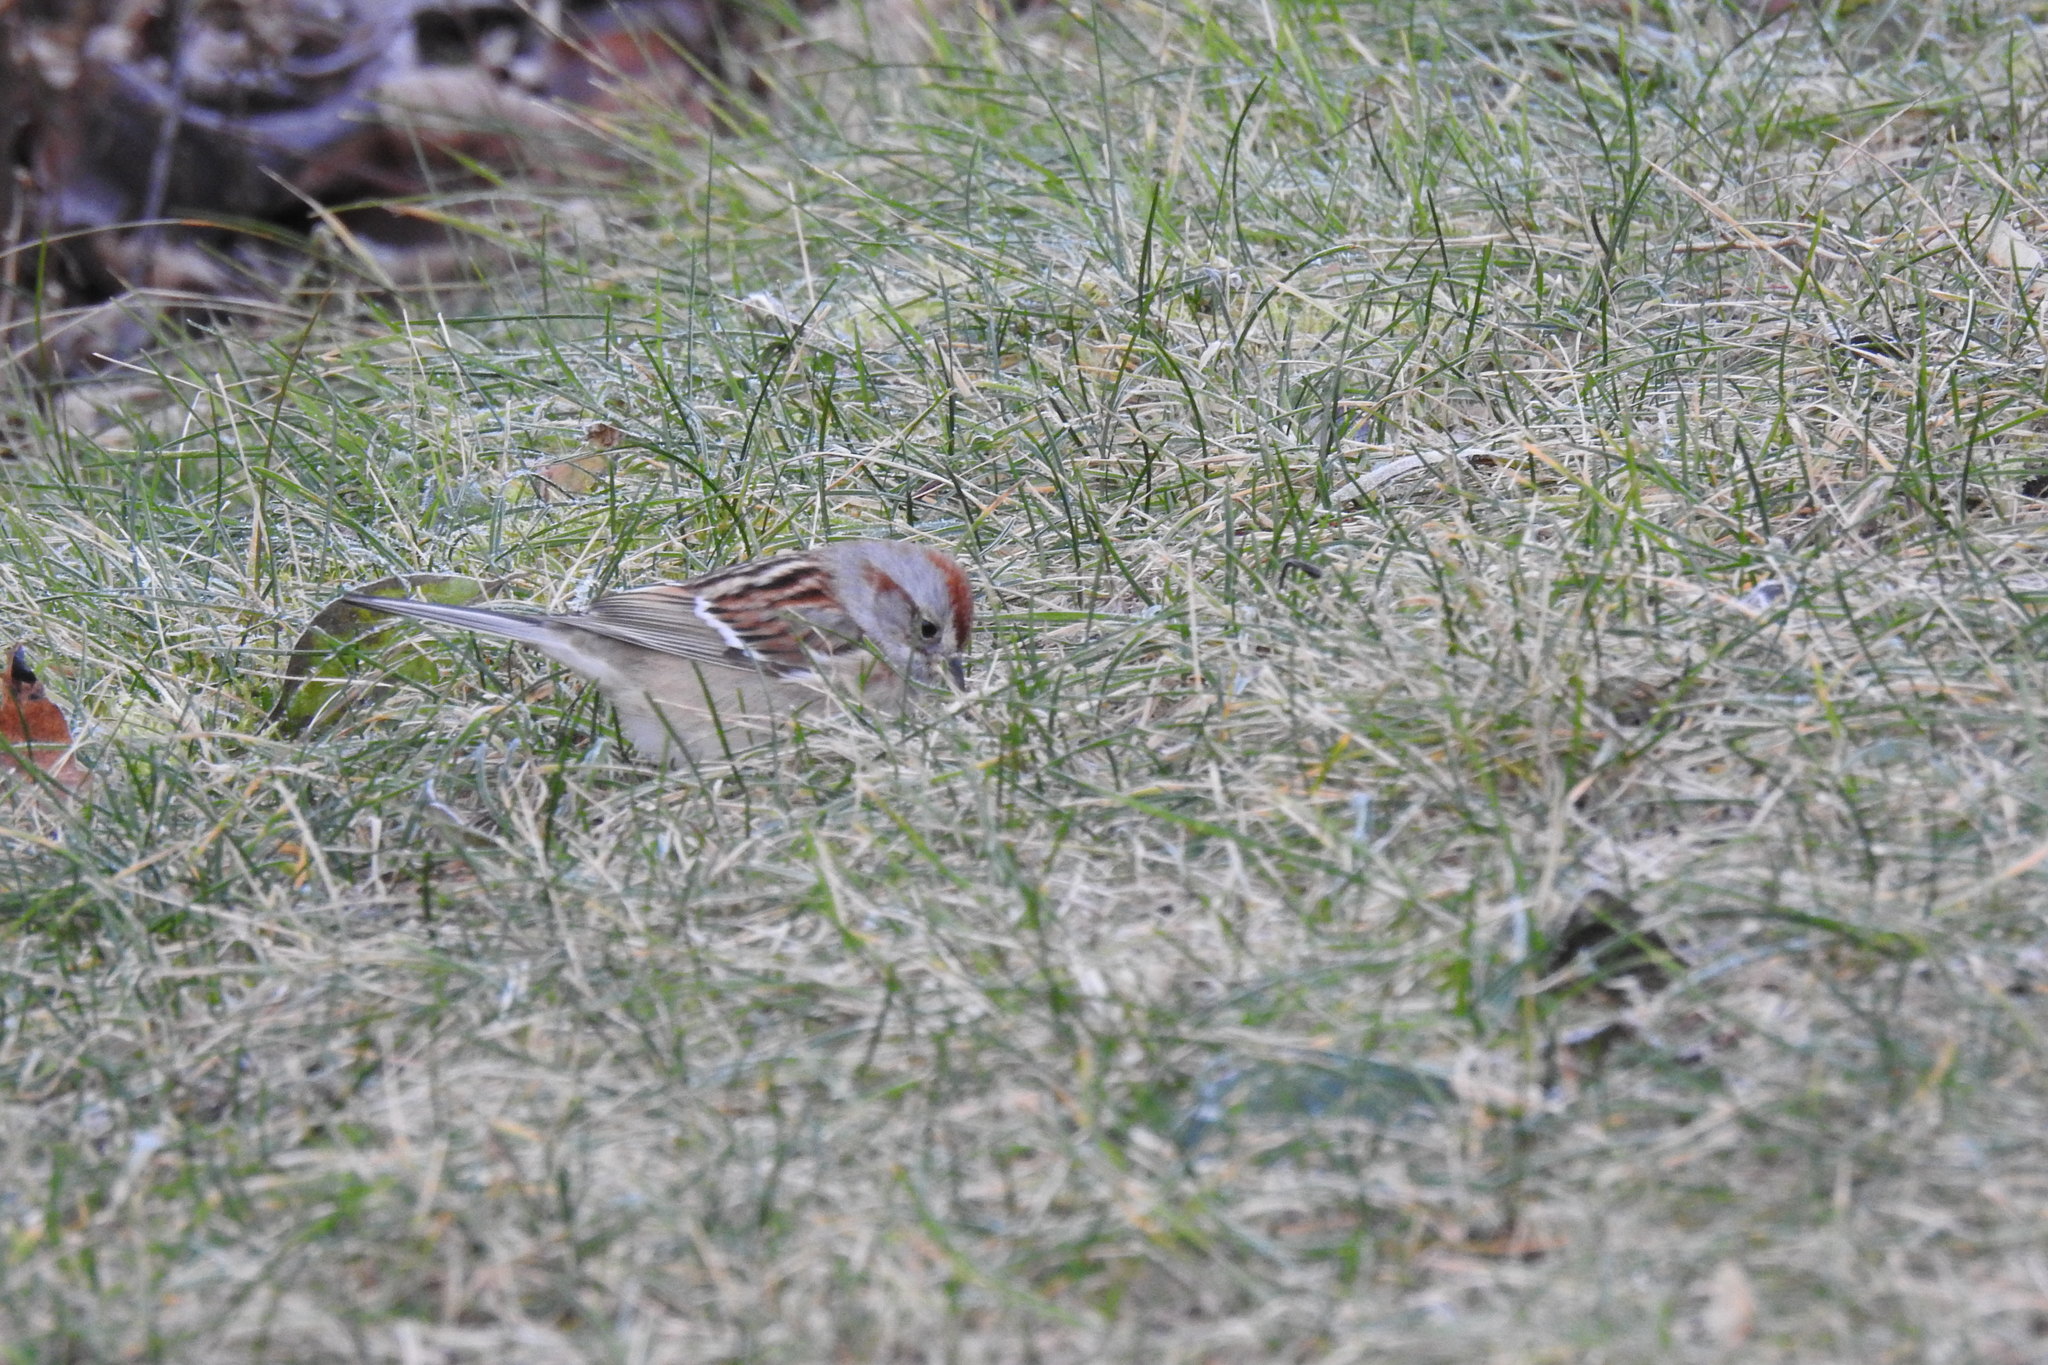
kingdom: Animalia
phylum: Chordata
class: Aves
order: Passeriformes
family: Passerellidae
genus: Spizelloides
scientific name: Spizelloides arborea
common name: American tree sparrow
